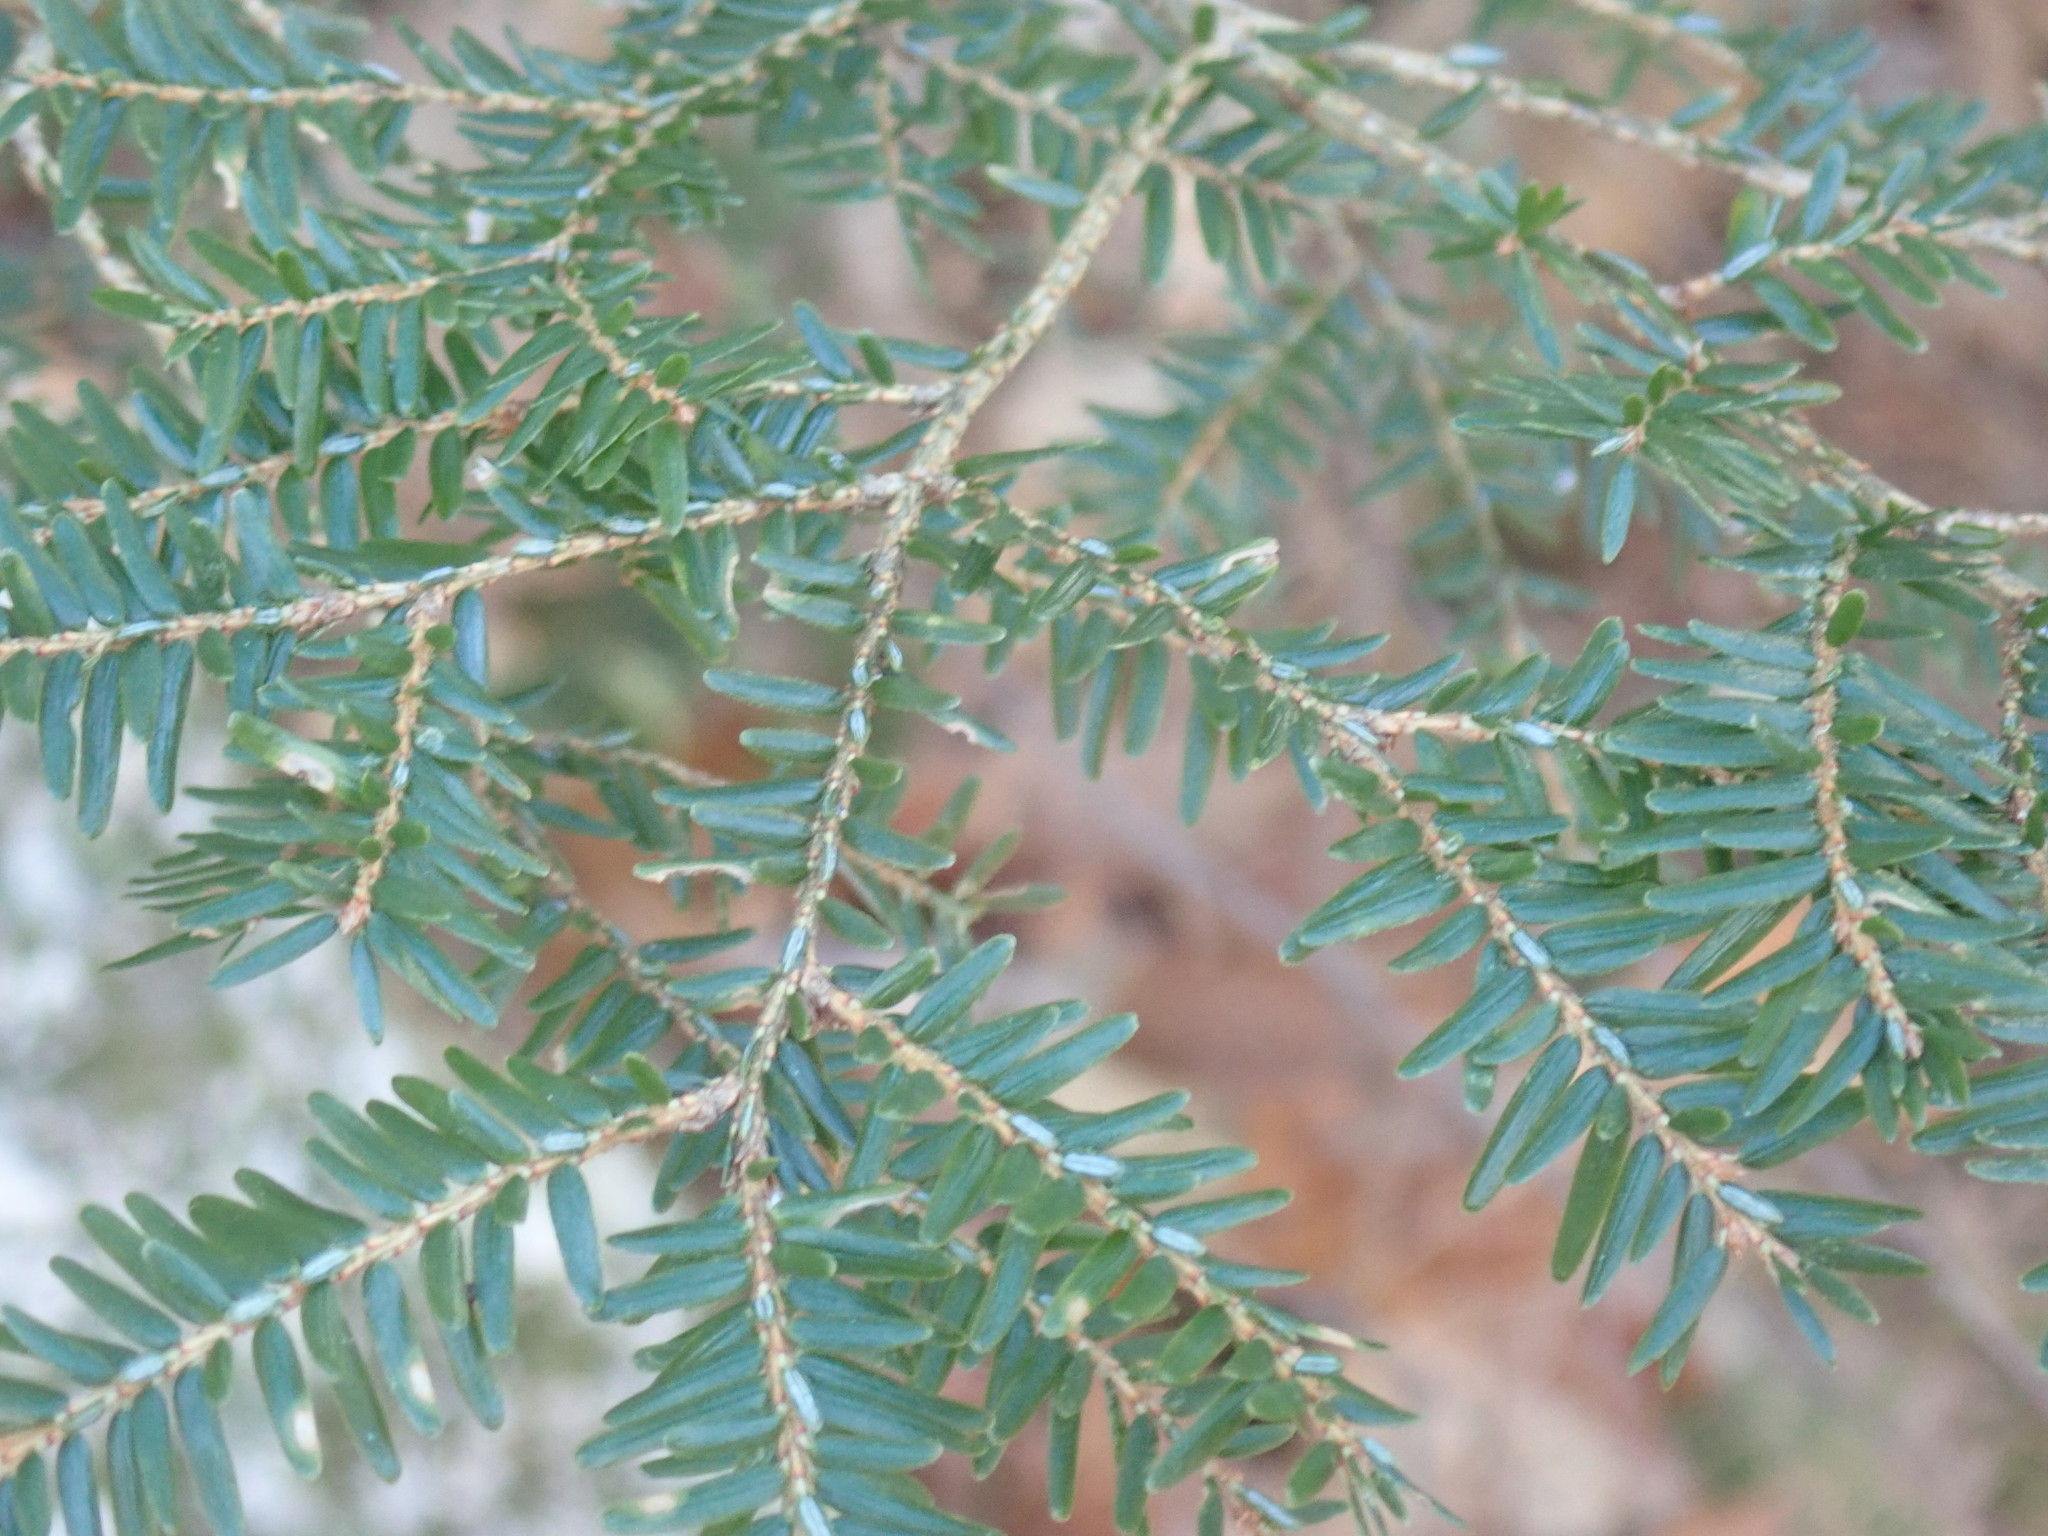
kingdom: Plantae
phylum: Tracheophyta
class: Pinopsida
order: Pinales
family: Pinaceae
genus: Tsuga
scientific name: Tsuga canadensis
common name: Eastern hemlock
